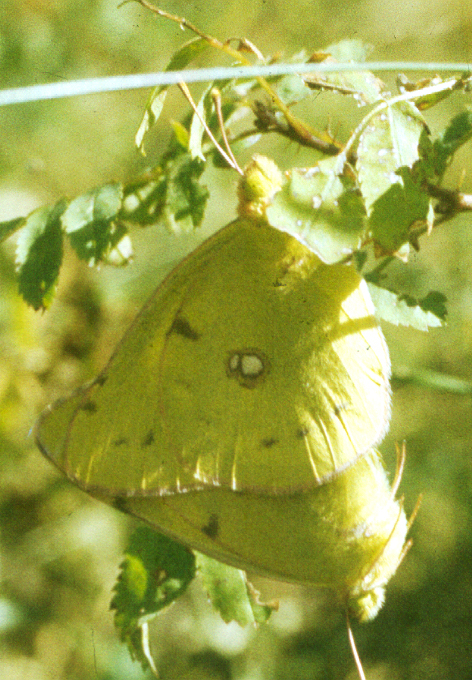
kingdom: Animalia
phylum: Arthropoda
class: Insecta
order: Lepidoptera
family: Pieridae
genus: Colias
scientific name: Colias erate
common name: Eastern pale clouded yellow
